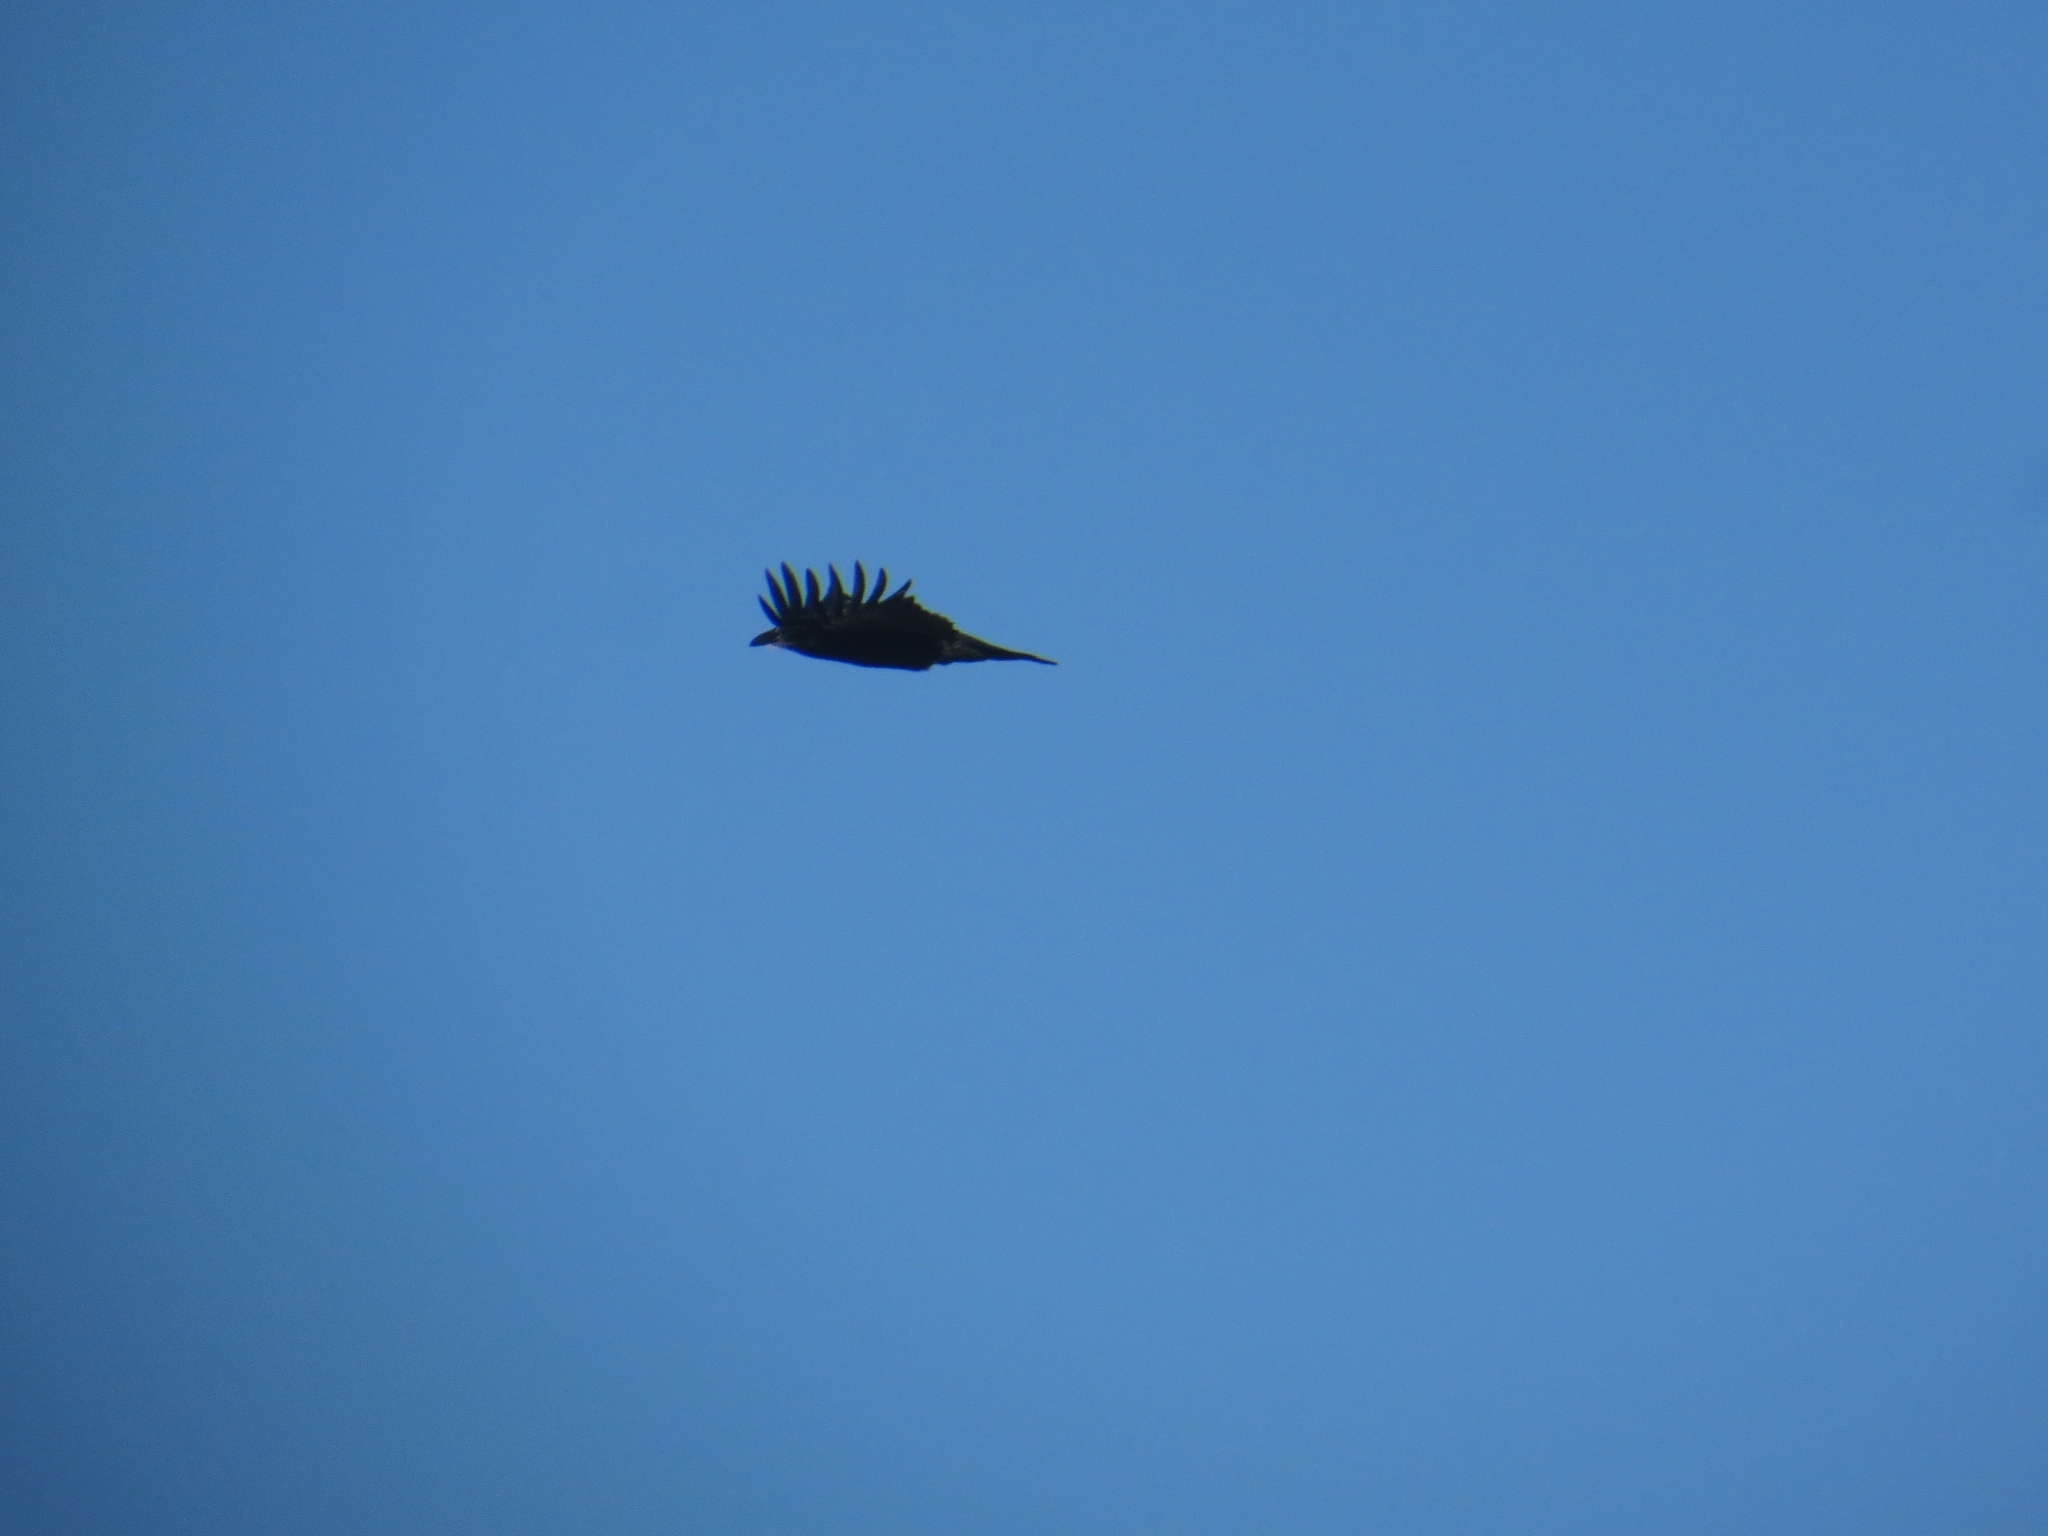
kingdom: Animalia
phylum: Chordata
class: Aves
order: Passeriformes
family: Corvidae
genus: Corvus
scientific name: Corvus corax
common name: Common raven
